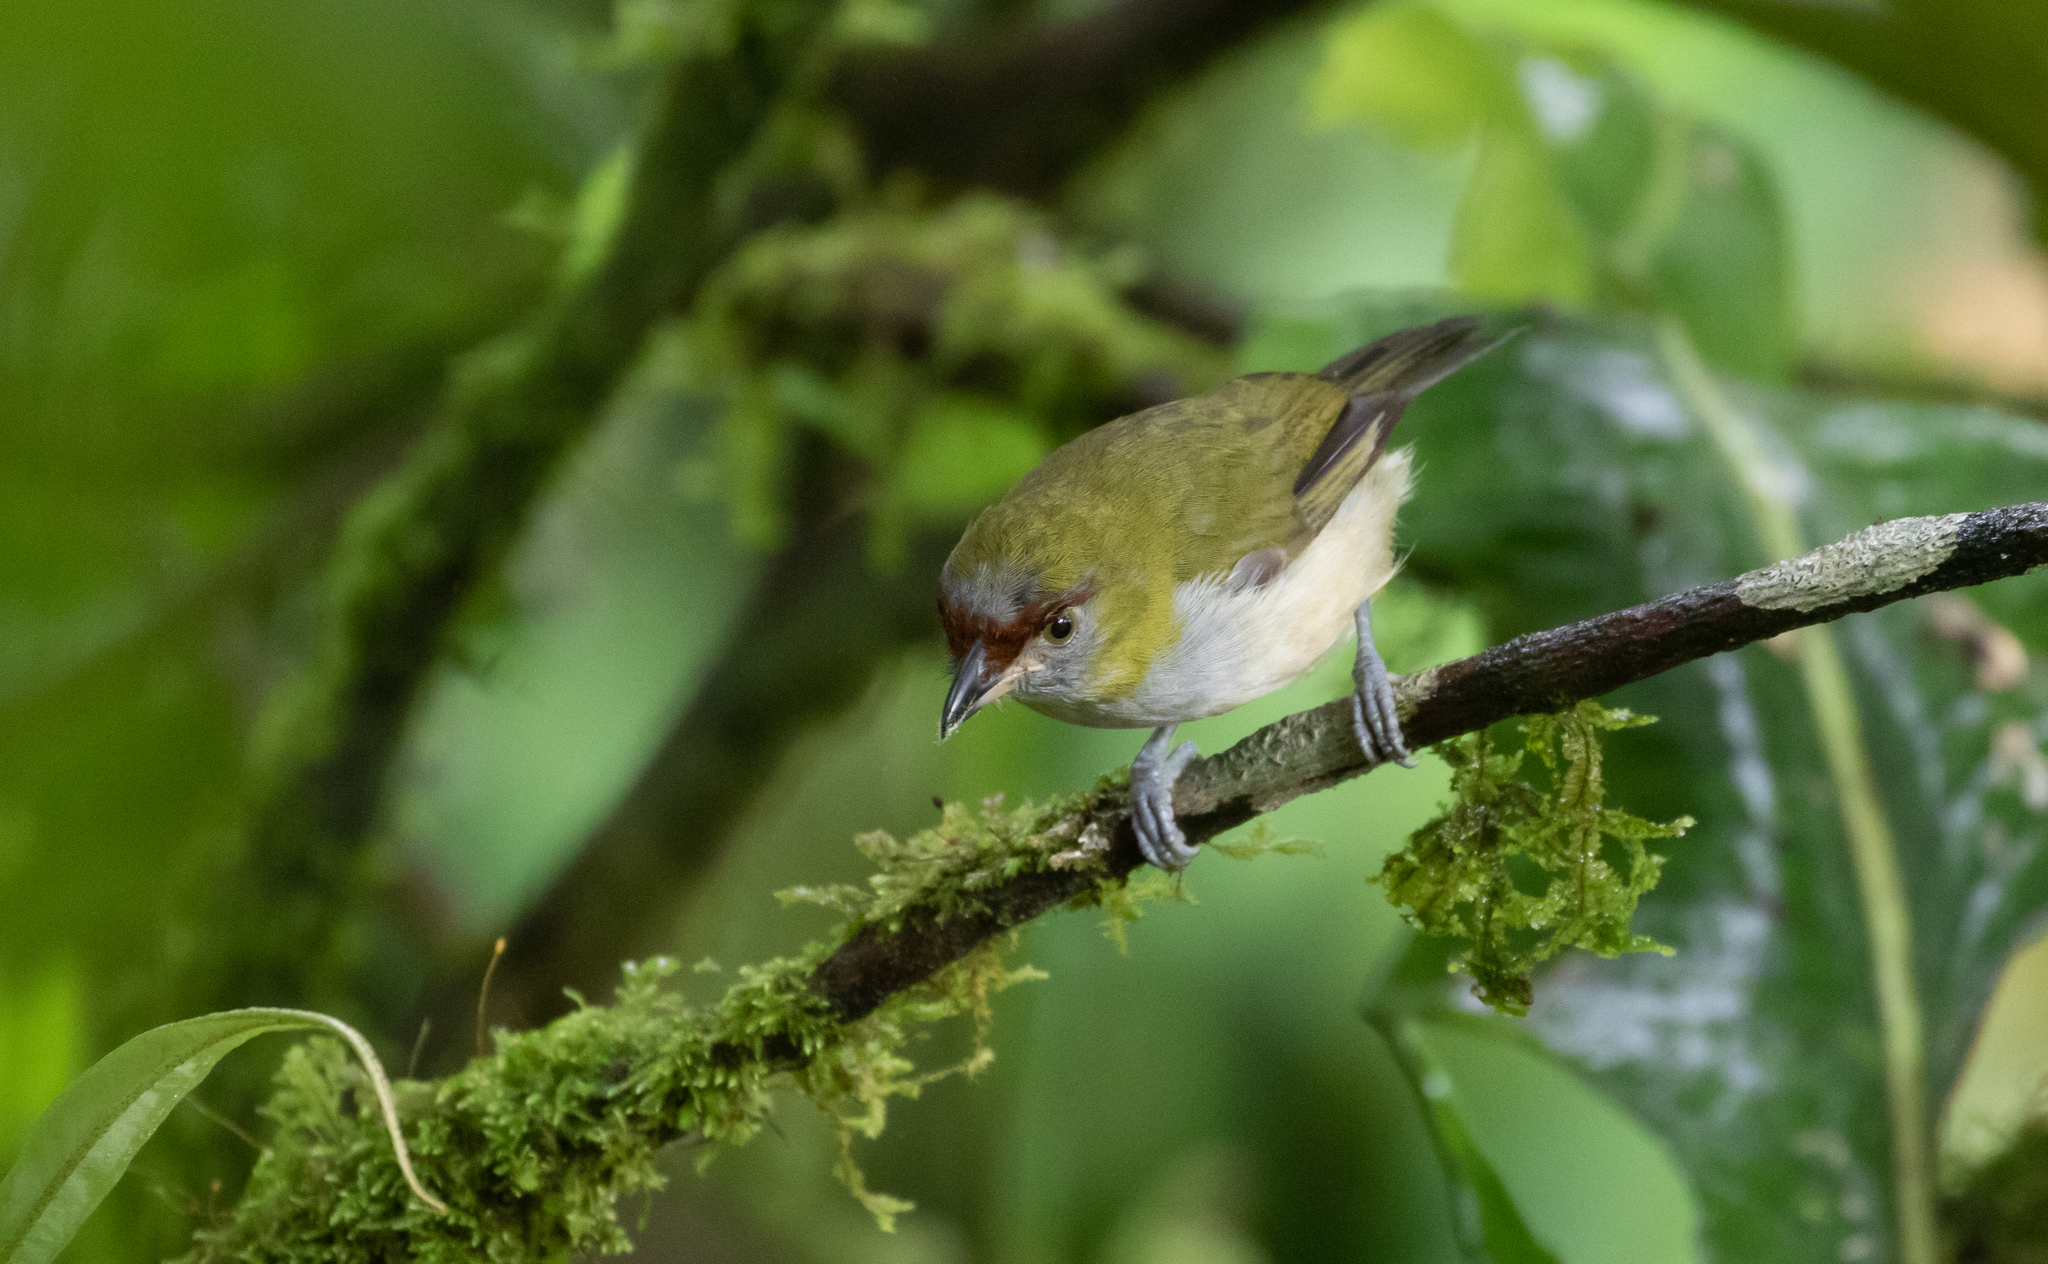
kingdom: Animalia
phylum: Chordata
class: Aves
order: Passeriformes
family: Vireonidae
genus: Cyclarhis
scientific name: Cyclarhis nigrirostris
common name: Black-billed peppershrike
